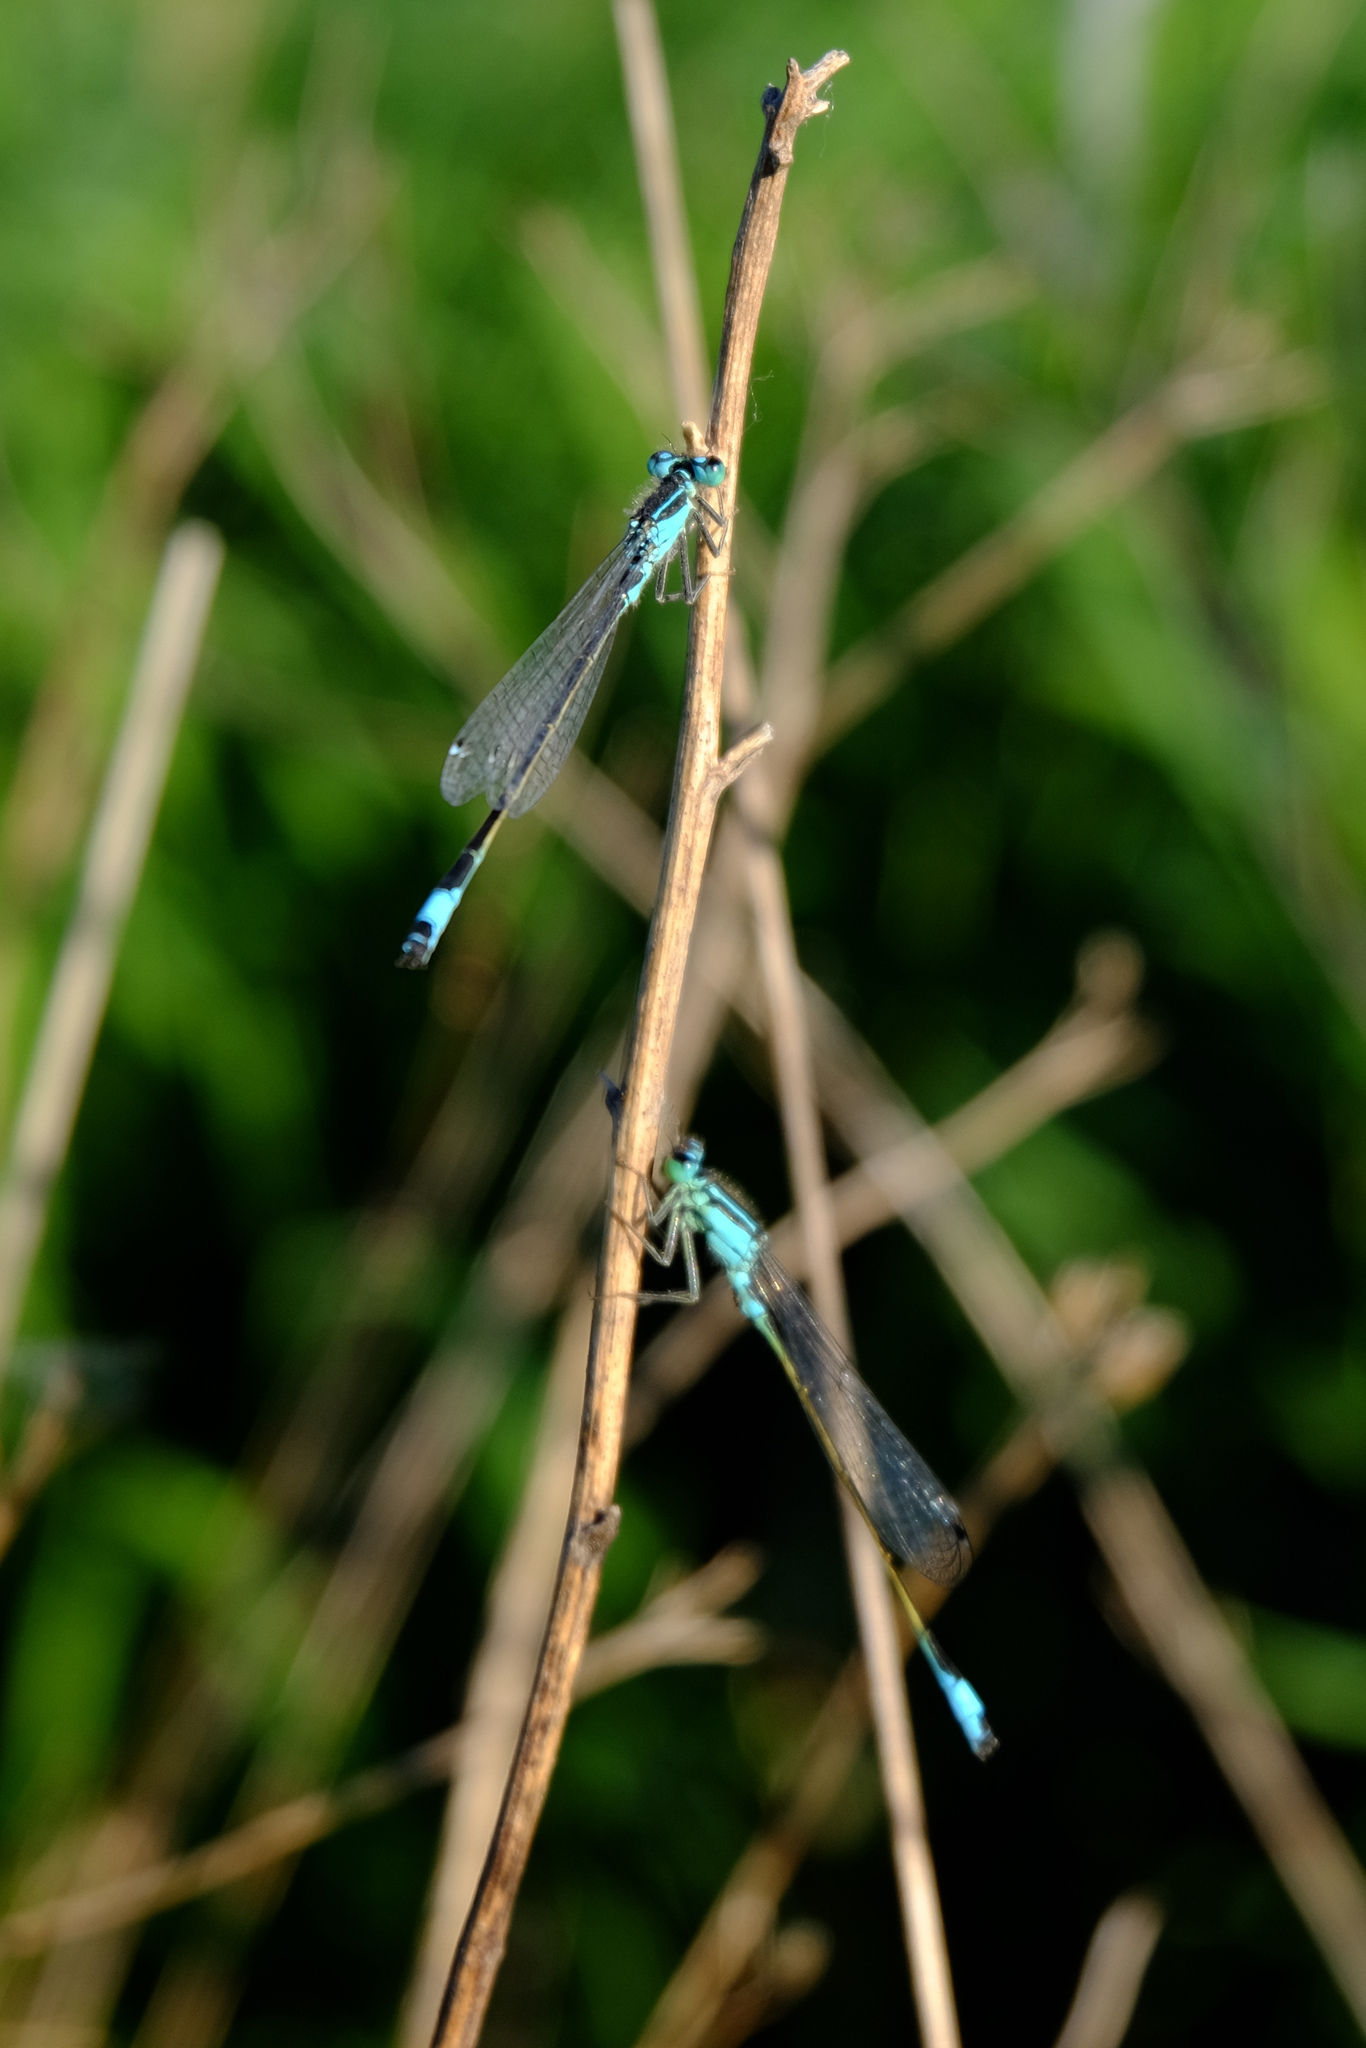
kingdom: Animalia
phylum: Arthropoda
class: Insecta
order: Odonata
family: Coenagrionidae
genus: Ischnura
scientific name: Ischnura elegans
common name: Blue-tailed damselfly
